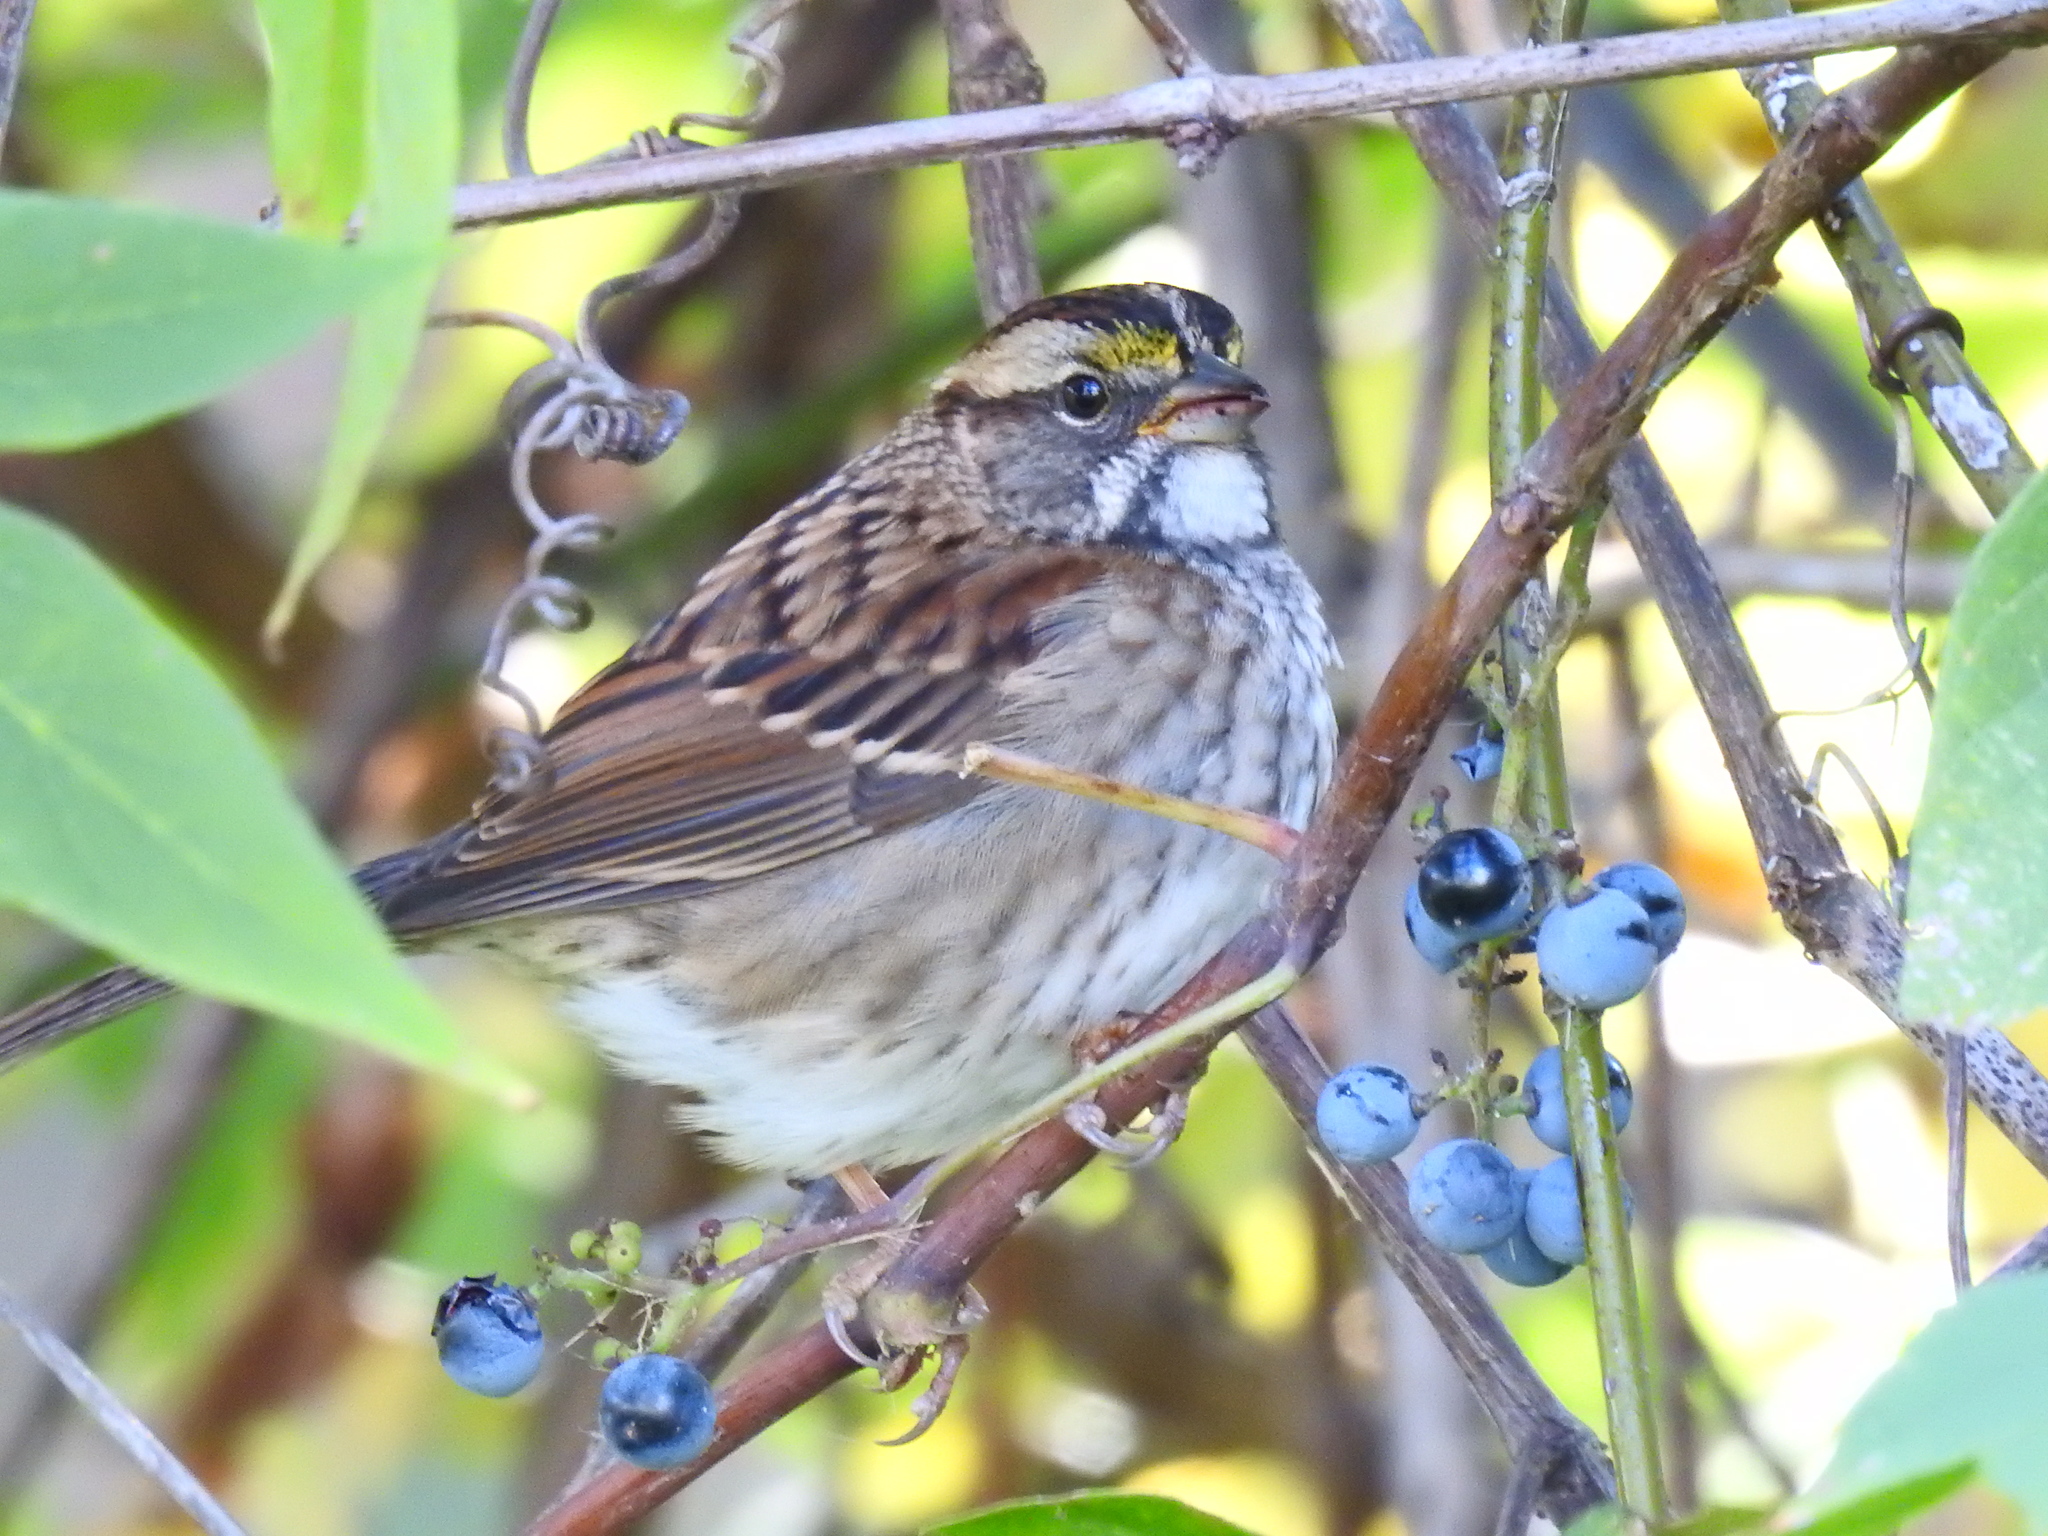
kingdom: Animalia
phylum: Chordata
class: Aves
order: Passeriformes
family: Passerellidae
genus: Zonotrichia
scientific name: Zonotrichia albicollis
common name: White-throated sparrow
